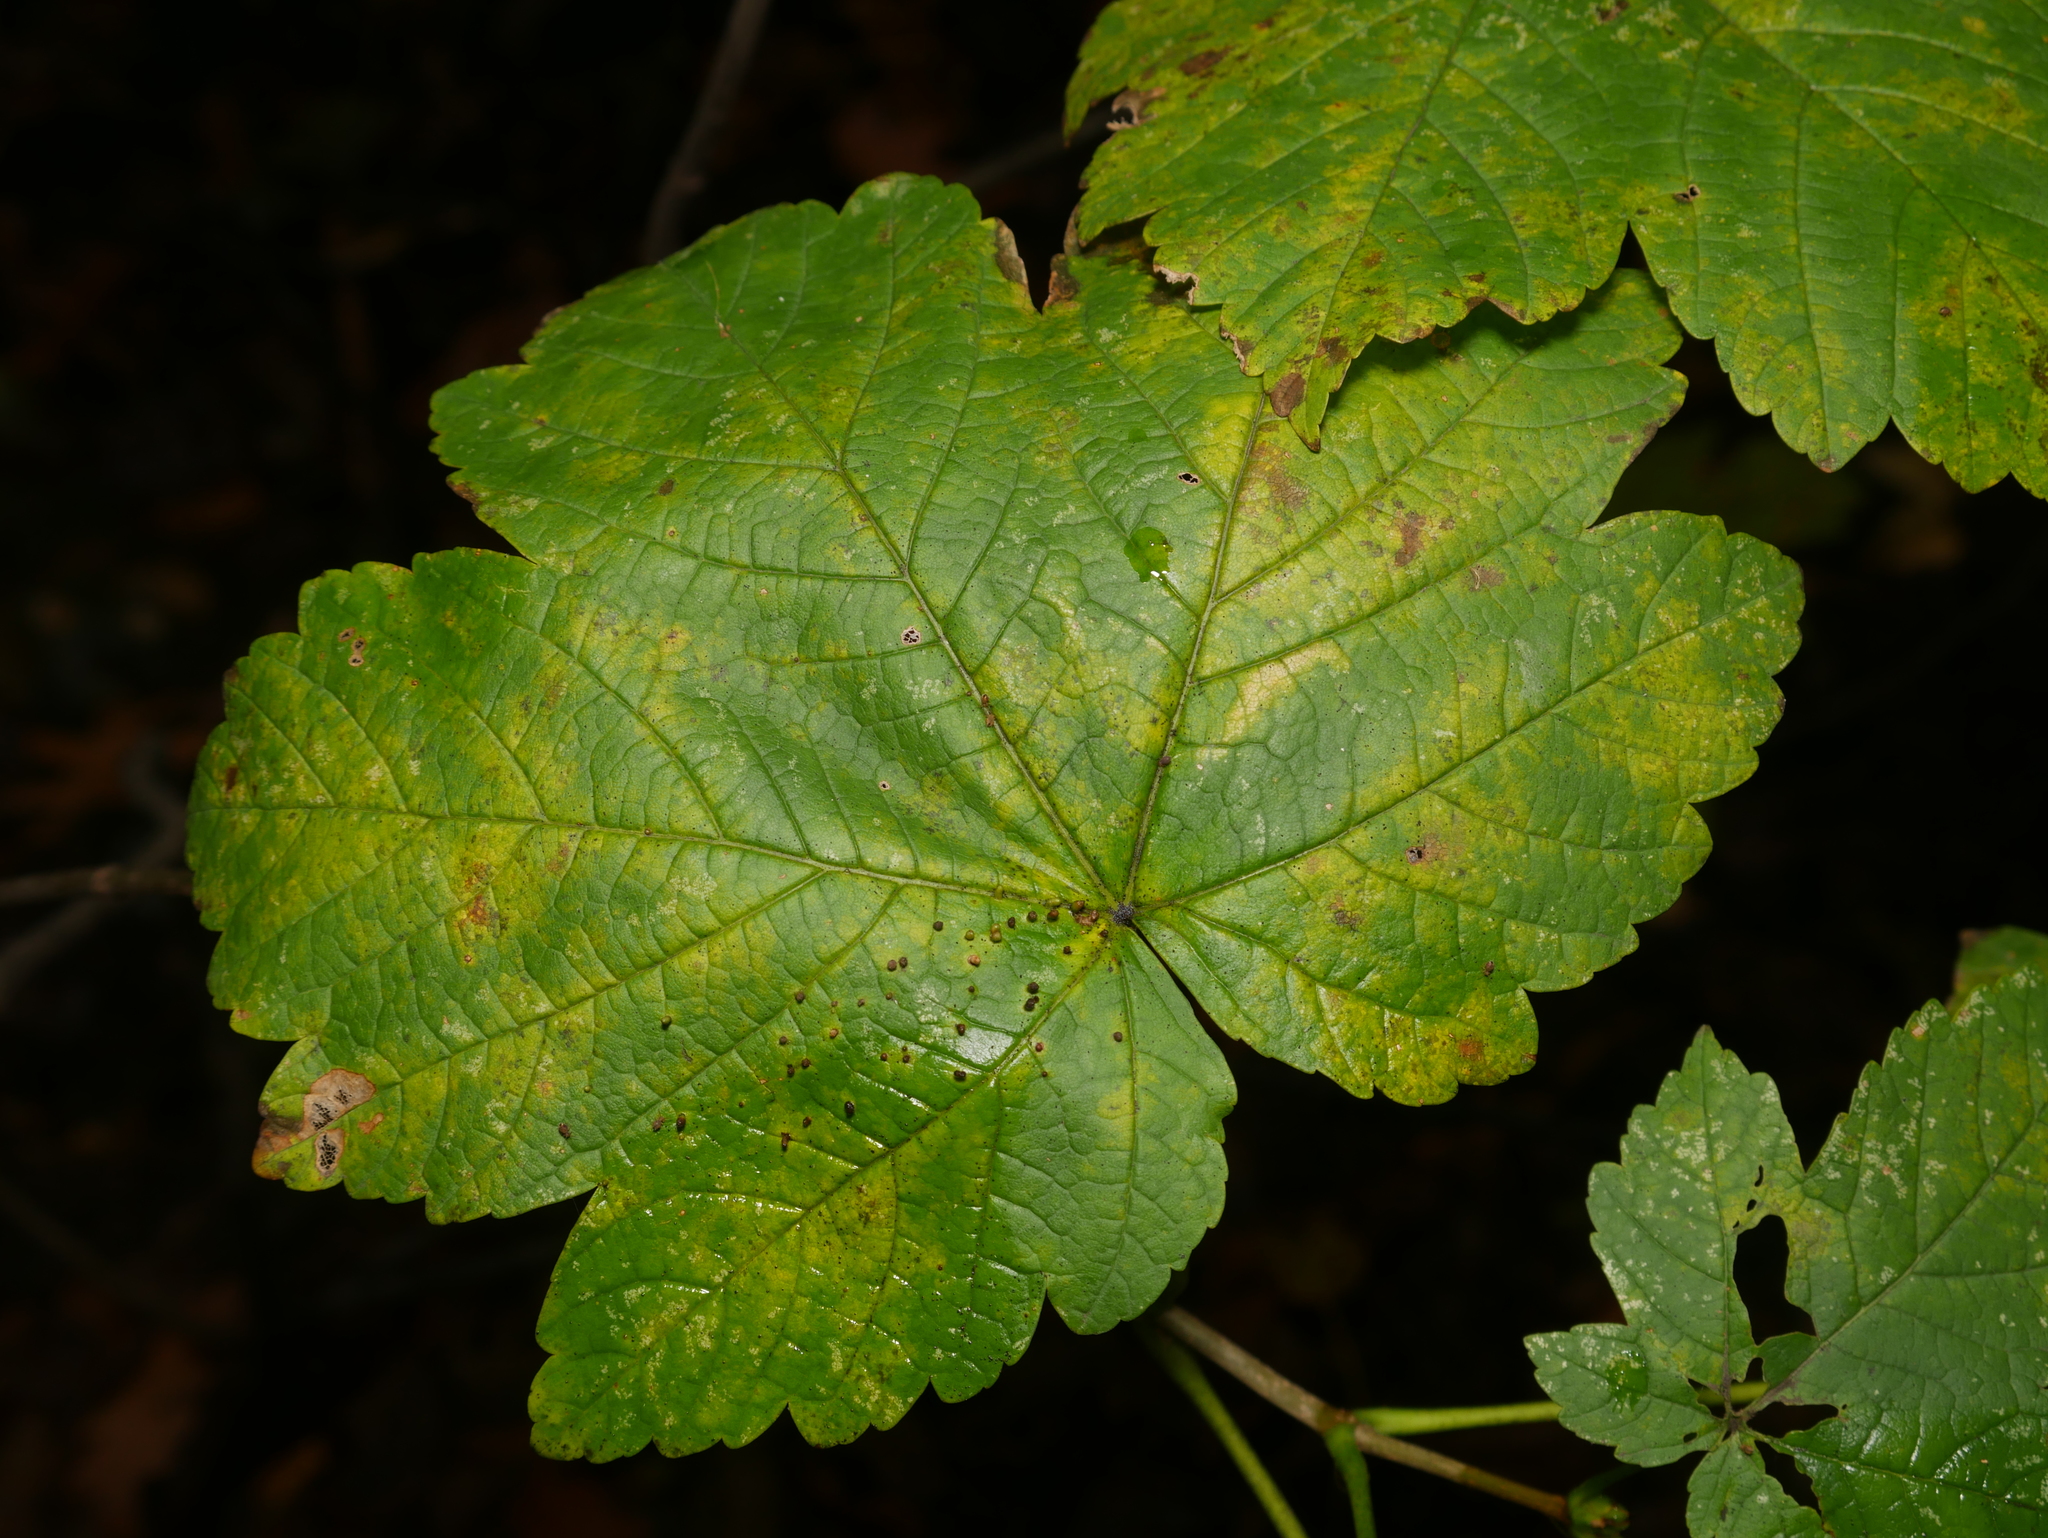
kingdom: Plantae
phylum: Tracheophyta
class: Magnoliopsida
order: Sapindales
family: Sapindaceae
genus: Acer
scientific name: Acer pseudoplatanus
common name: Sycamore
